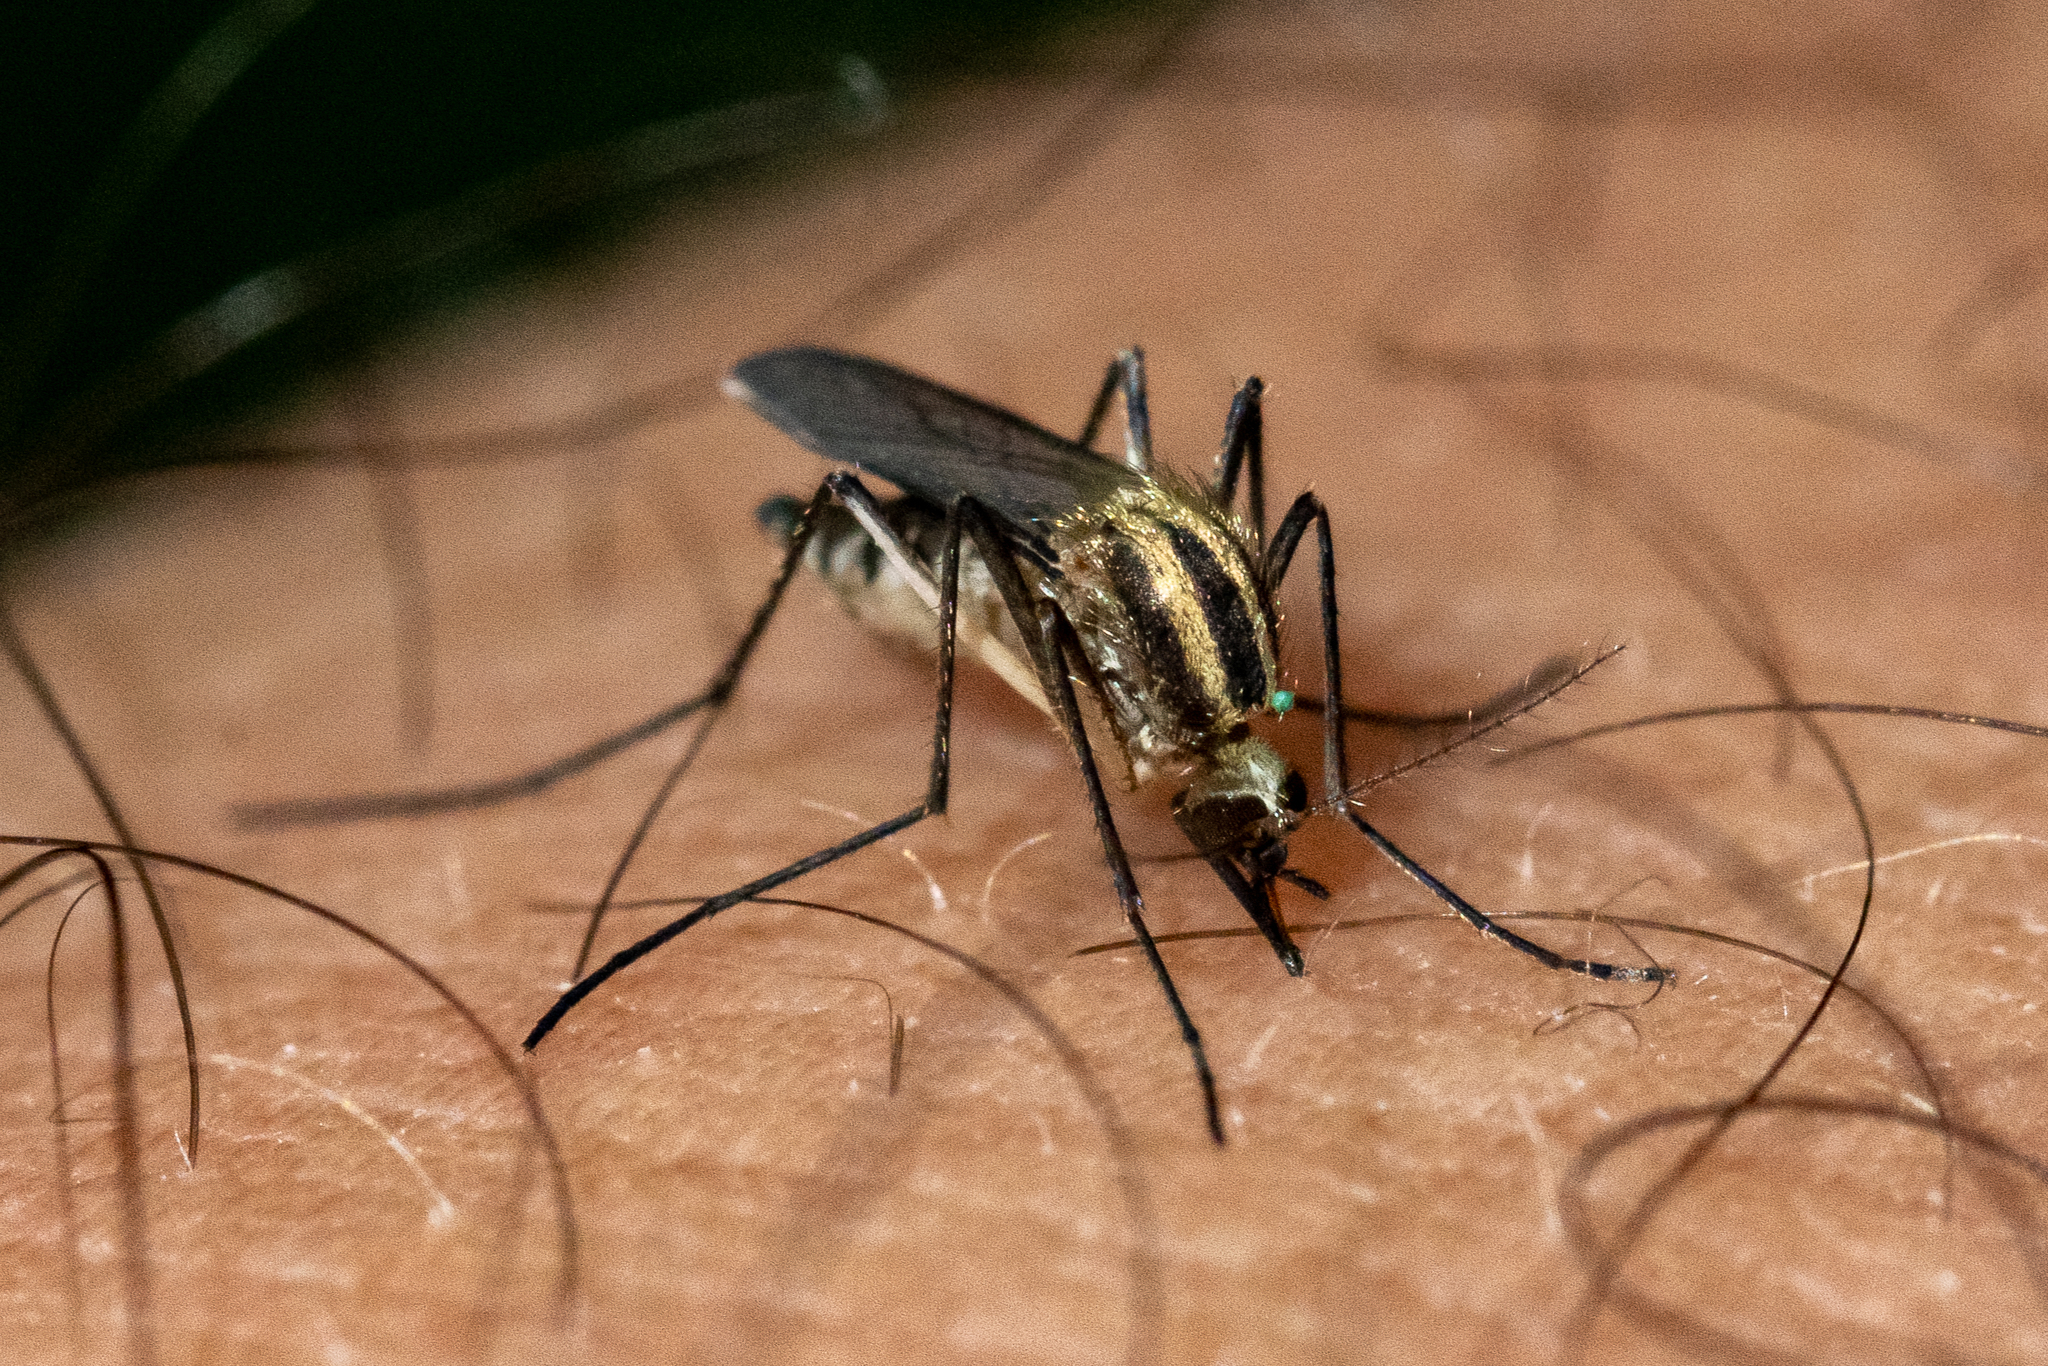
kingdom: Animalia
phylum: Arthropoda
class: Insecta
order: Diptera
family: Culicidae
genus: Aedes
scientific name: Aedes trivittatus
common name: Plains floodwater mosquito
